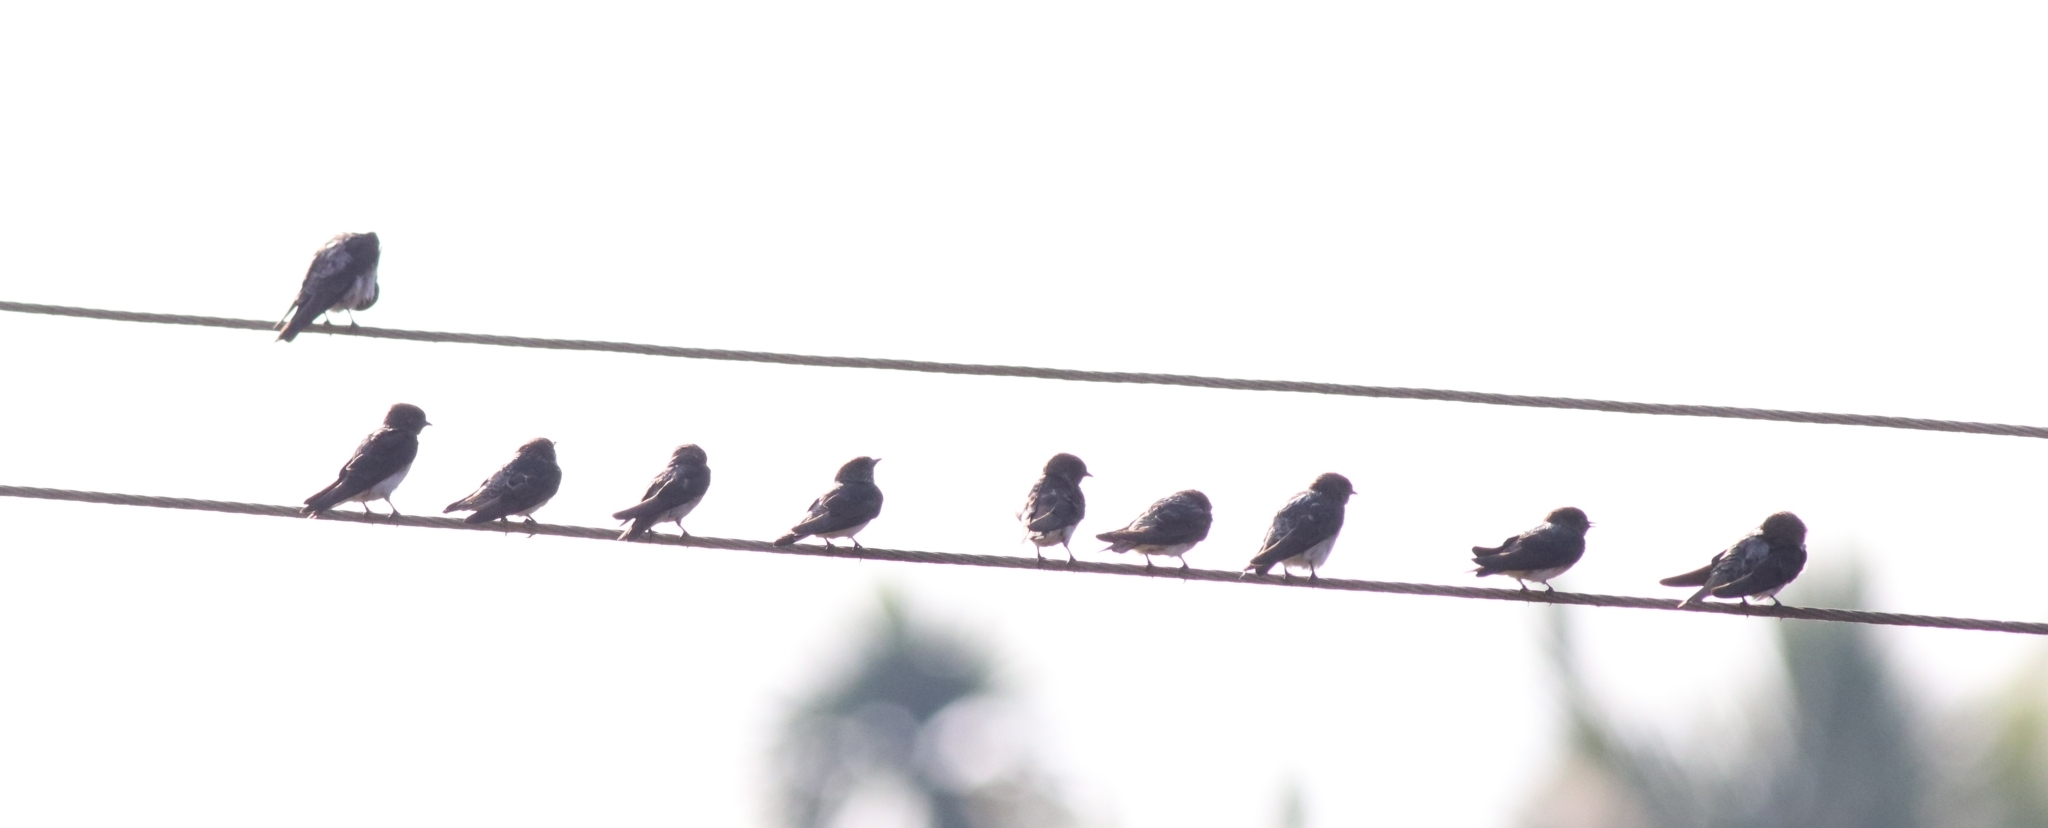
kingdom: Animalia
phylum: Chordata
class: Aves
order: Passeriformes
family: Hirundinidae
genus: Petrochelidon
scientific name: Petrochelidon fluvicola
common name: Streak-throated swallow
